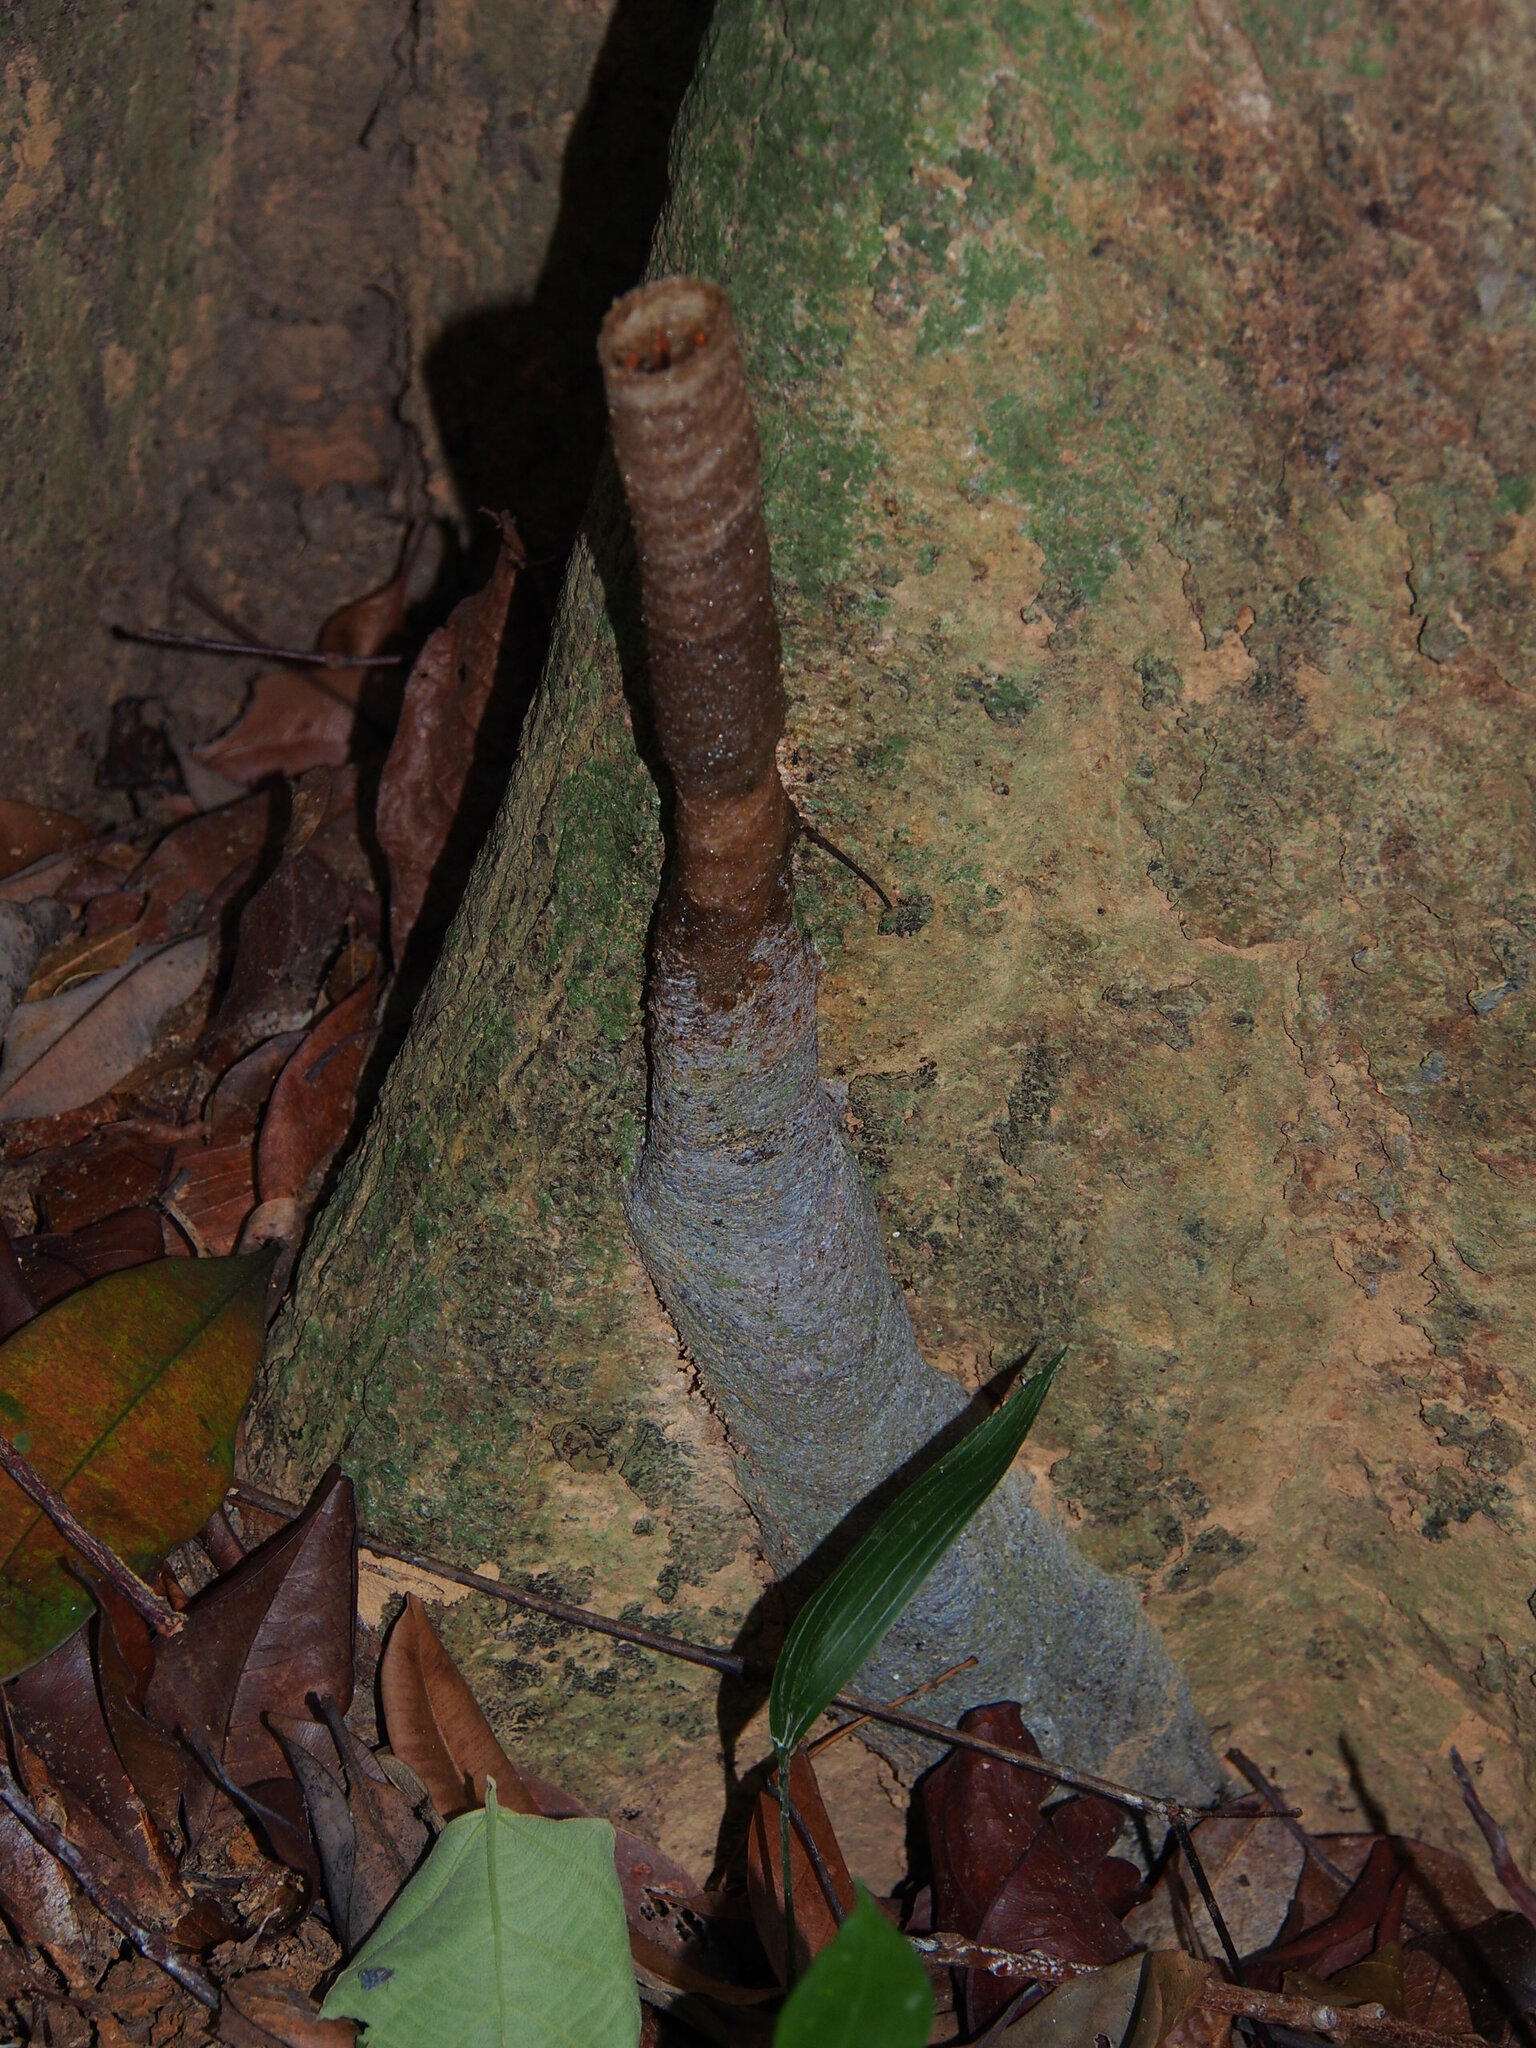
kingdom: Animalia
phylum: Arthropoda
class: Insecta
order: Hymenoptera
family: Apidae
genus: Tetragonula
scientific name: Tetragonula atripes
